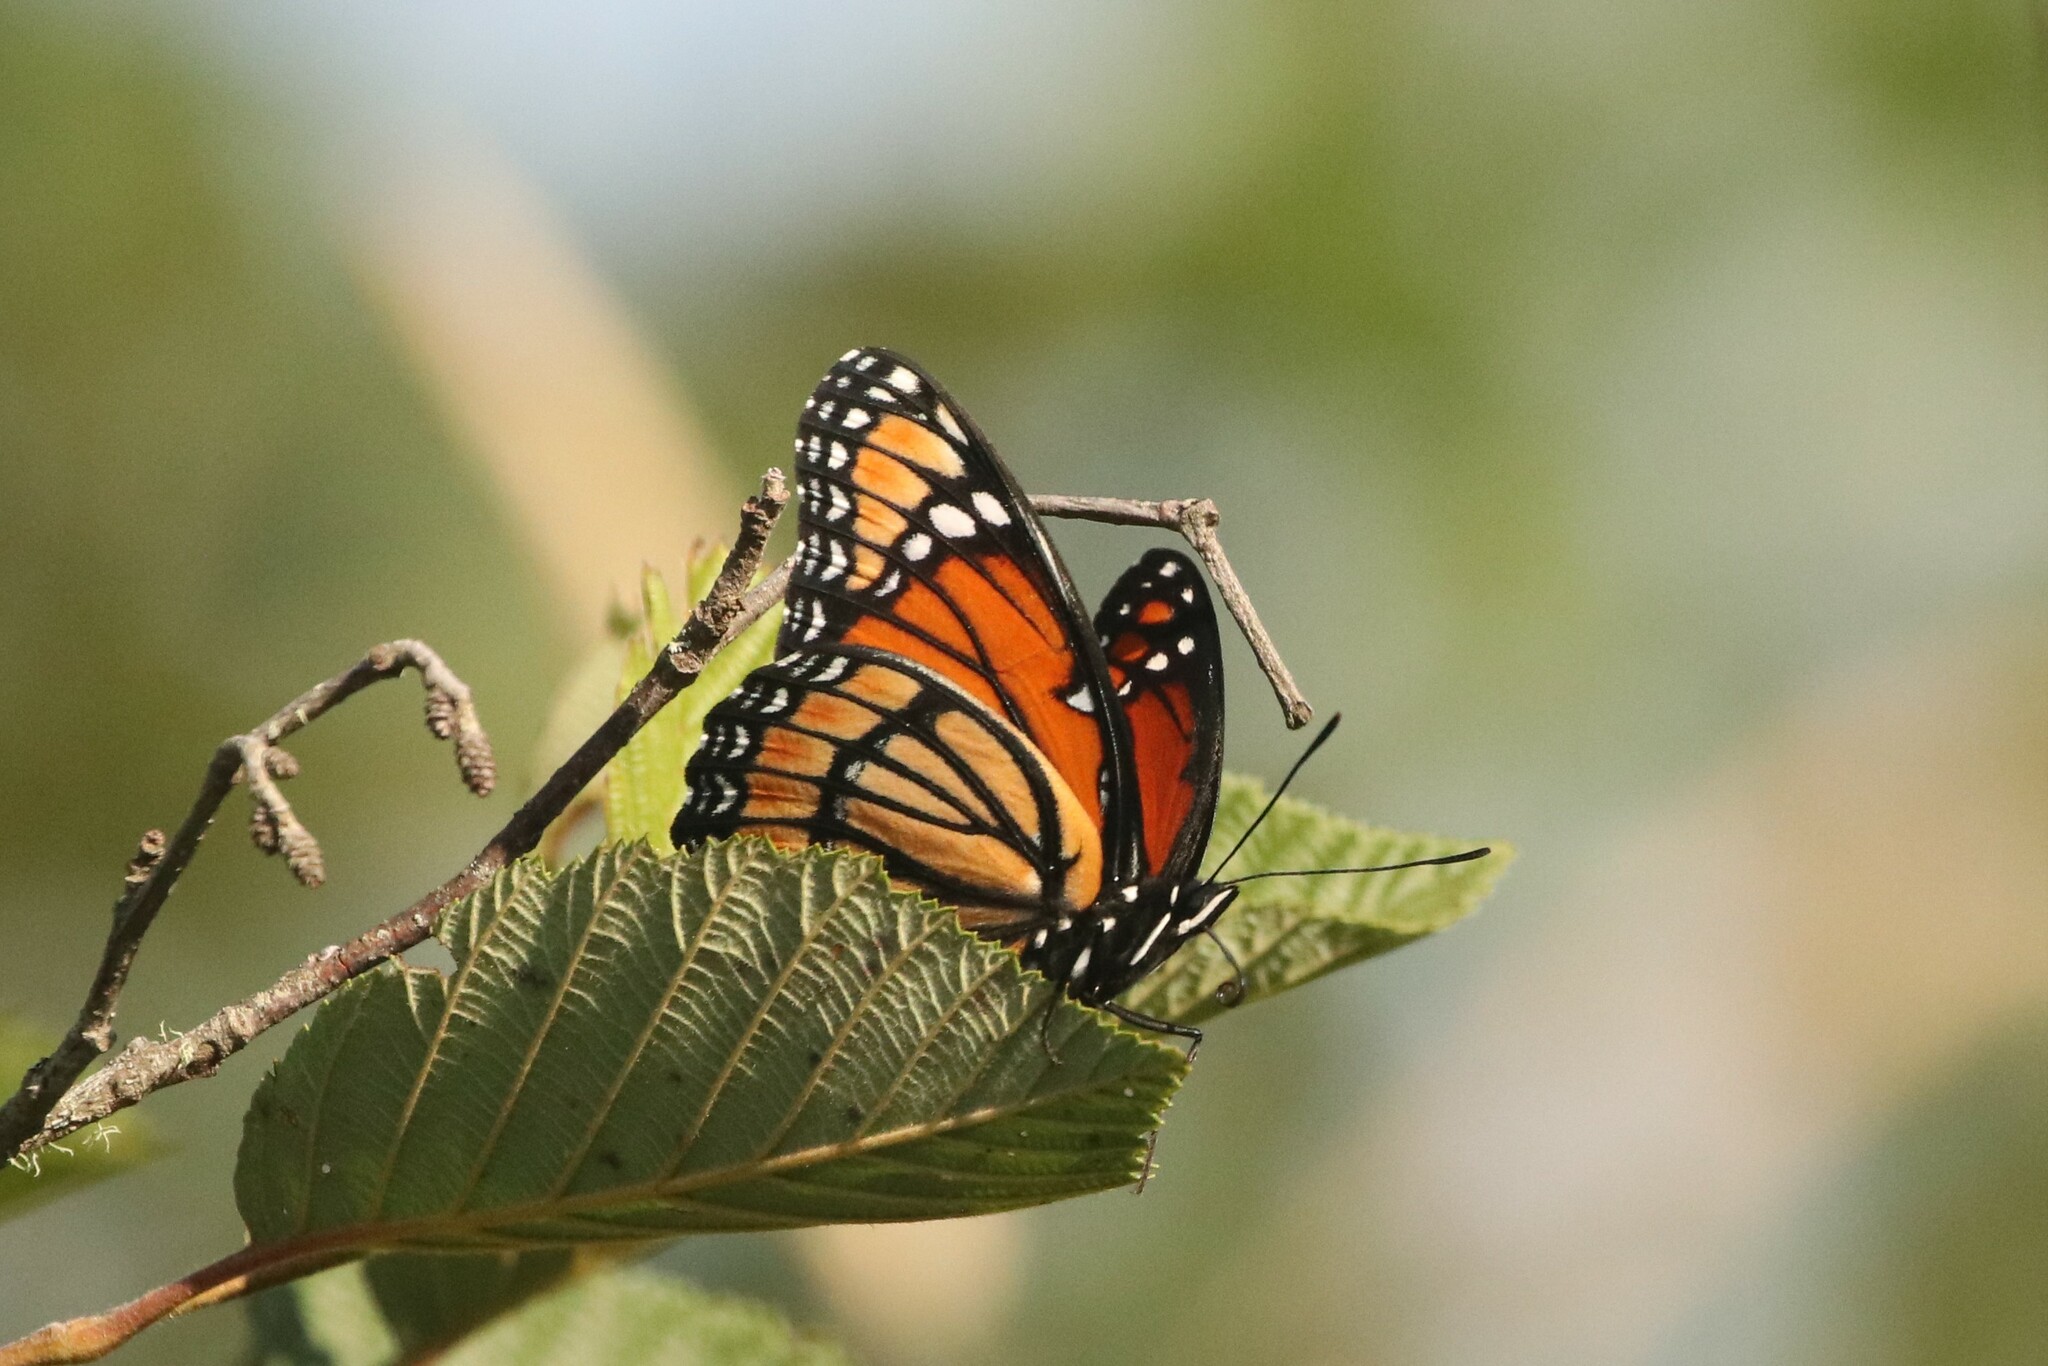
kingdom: Animalia
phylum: Arthropoda
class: Insecta
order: Lepidoptera
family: Nymphalidae
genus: Limenitis
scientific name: Limenitis archippus
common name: Viceroy
